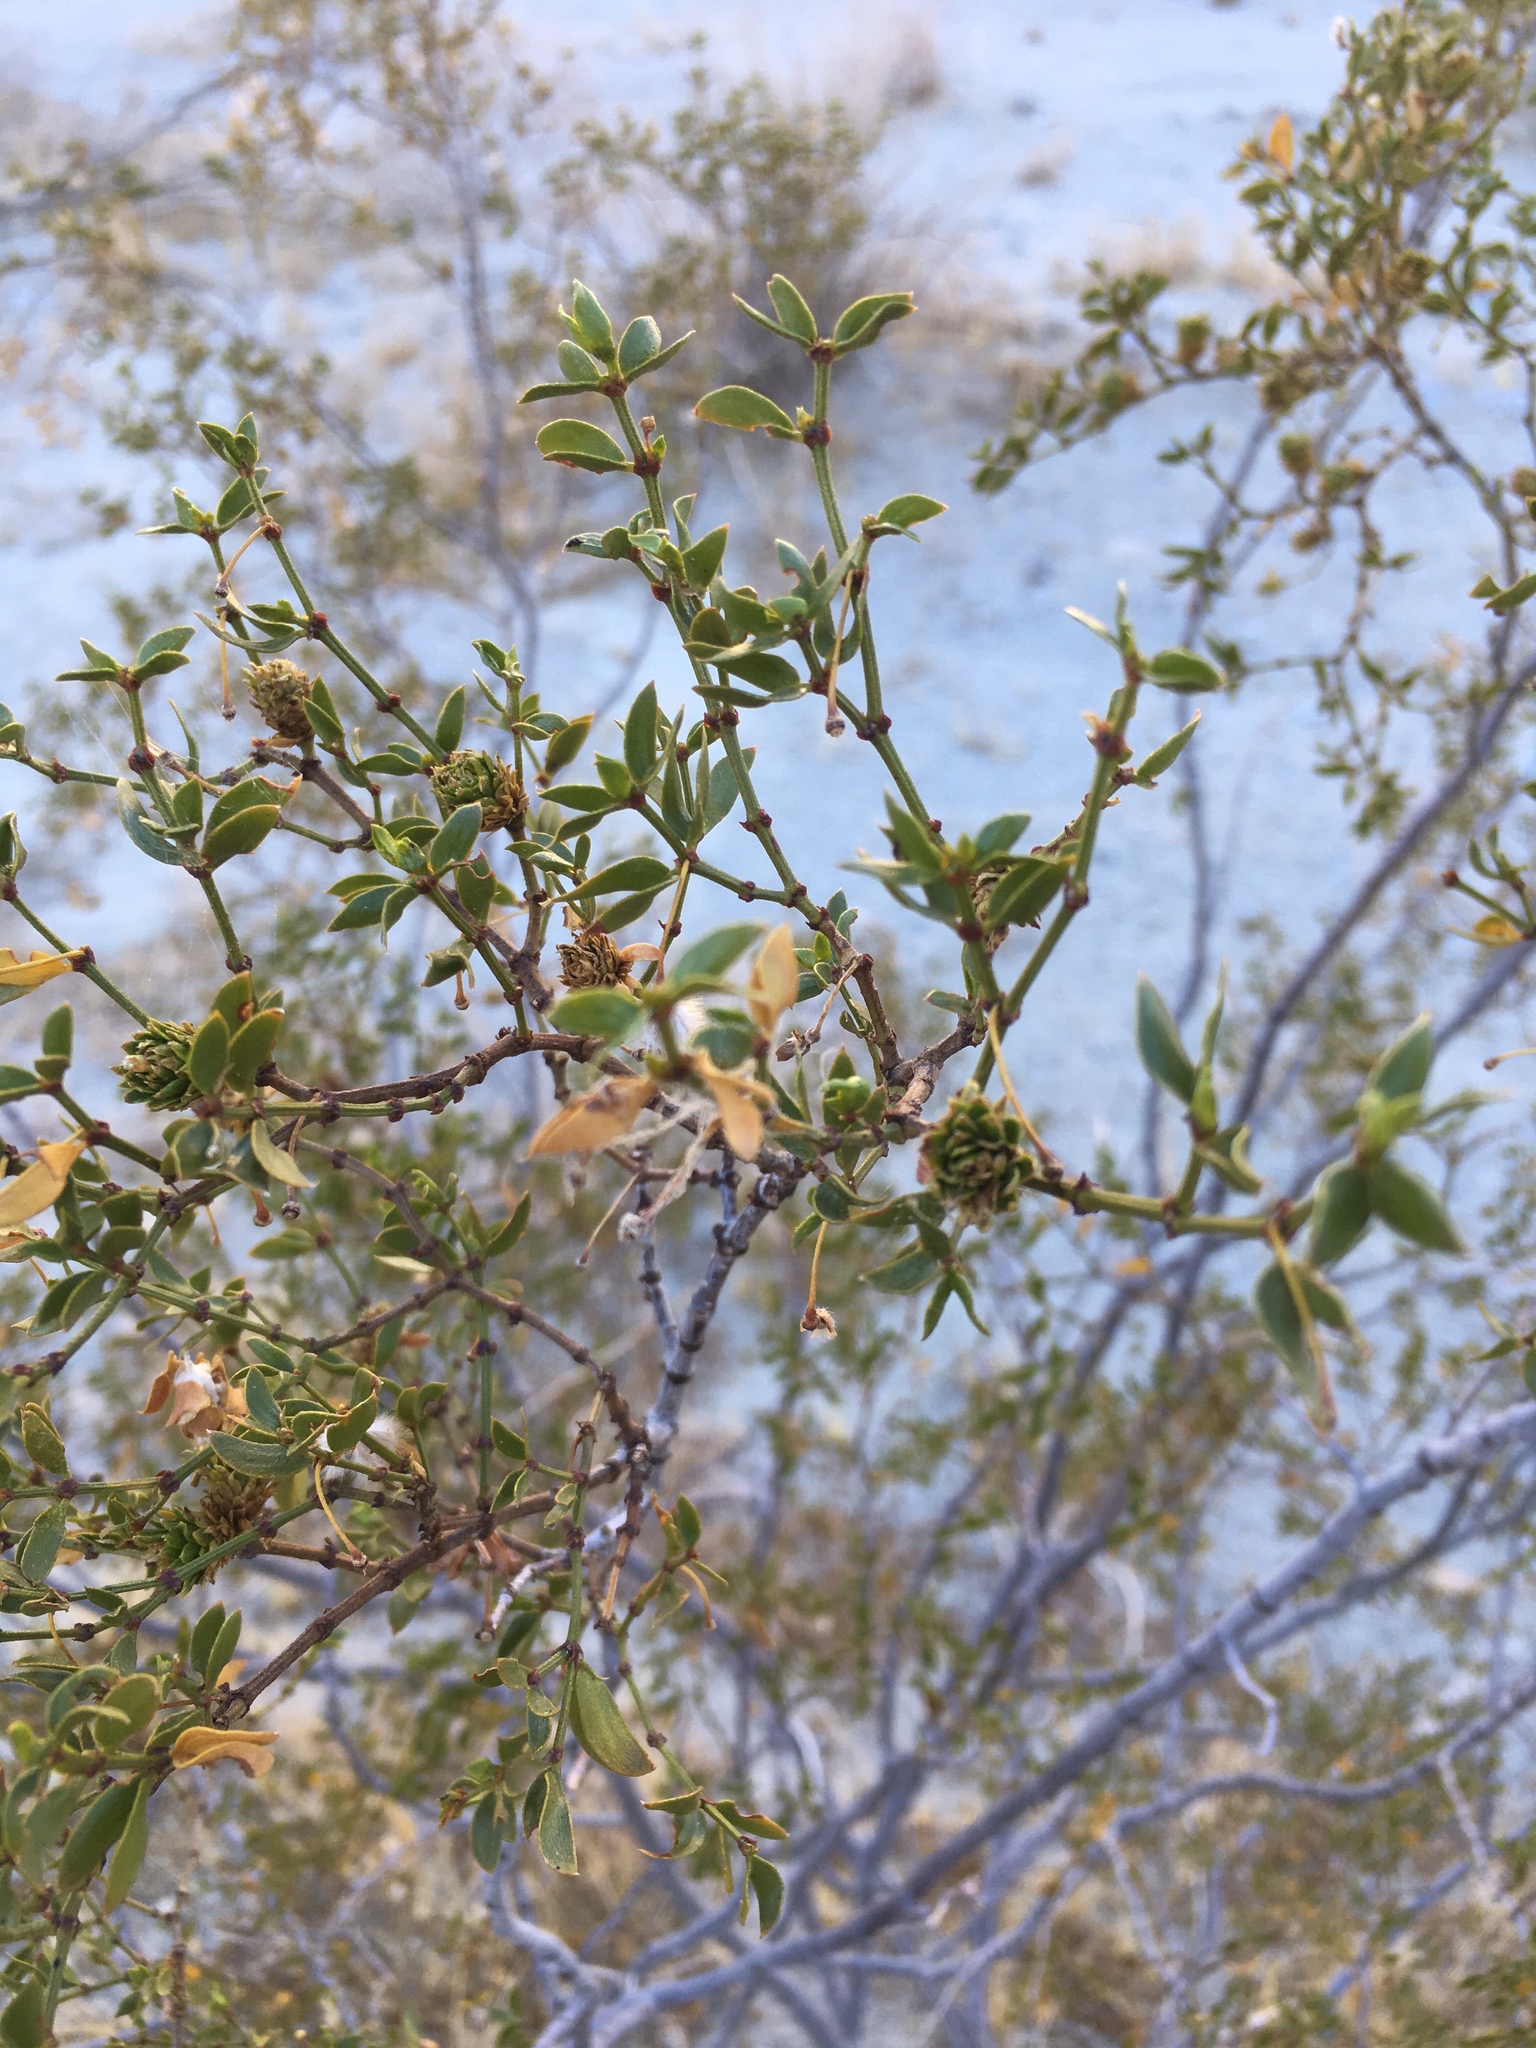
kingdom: Plantae
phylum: Tracheophyta
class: Magnoliopsida
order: Zygophyllales
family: Zygophyllaceae
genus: Larrea
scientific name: Larrea tridentata
